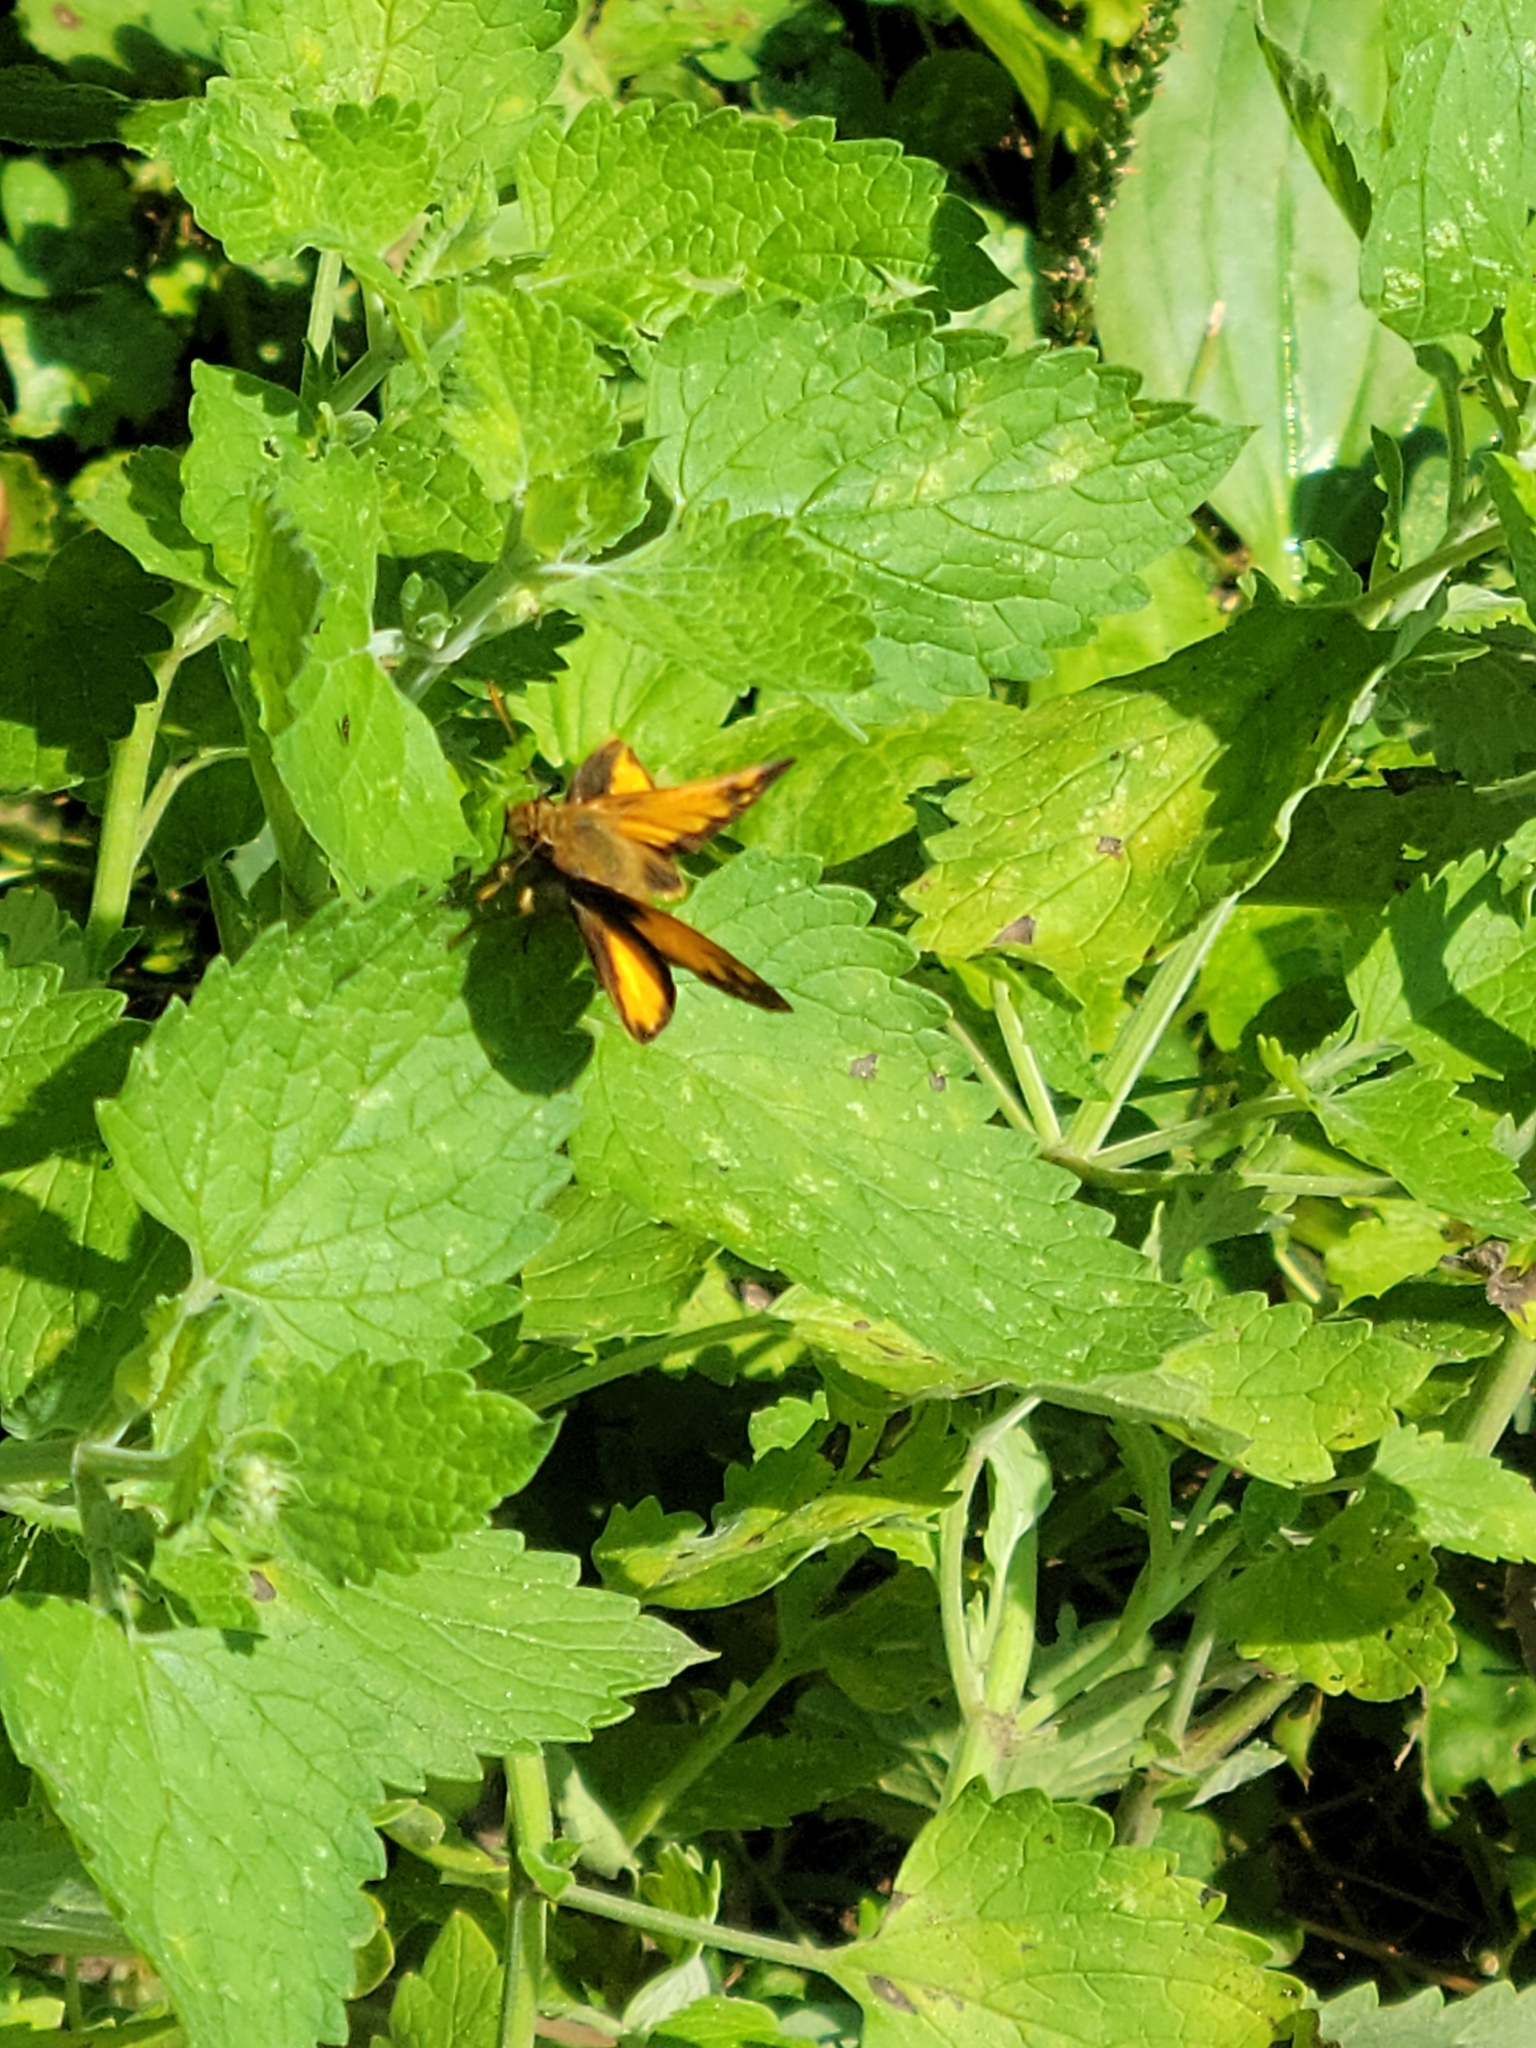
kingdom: Animalia
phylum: Arthropoda
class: Insecta
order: Lepidoptera
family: Hesperiidae
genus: Lon
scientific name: Lon zabulon
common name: Zabulon skipper
